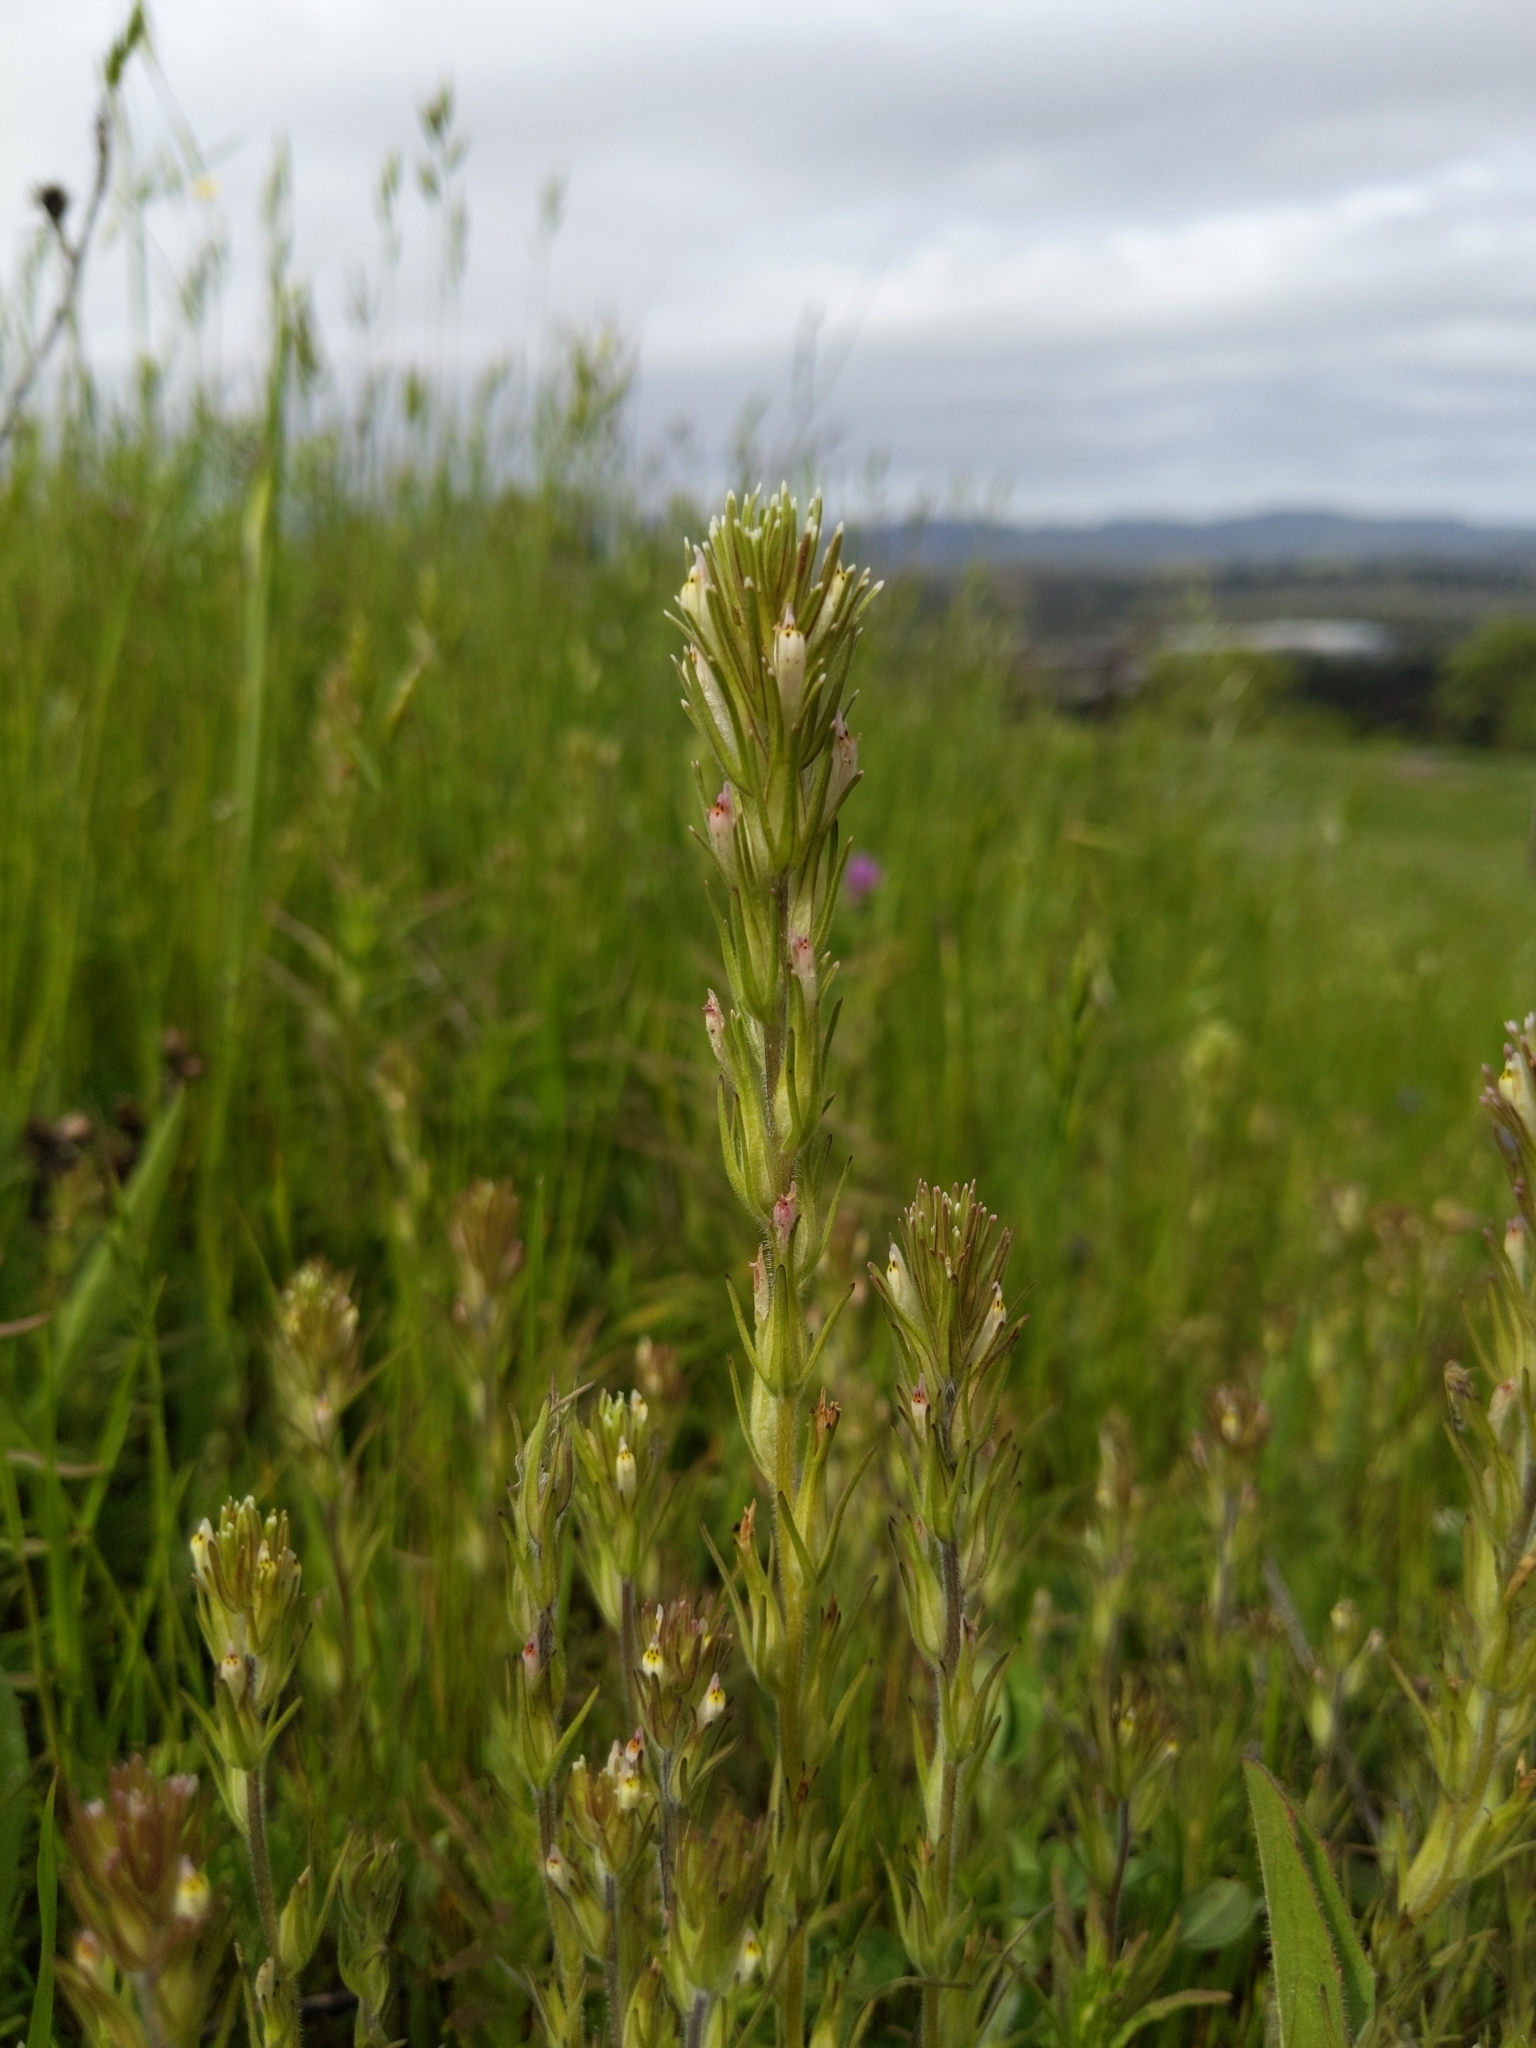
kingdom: Plantae
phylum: Tracheophyta
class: Magnoliopsida
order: Lamiales
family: Orobanchaceae
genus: Castilleja
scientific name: Castilleja attenuata
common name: Valley tassels
